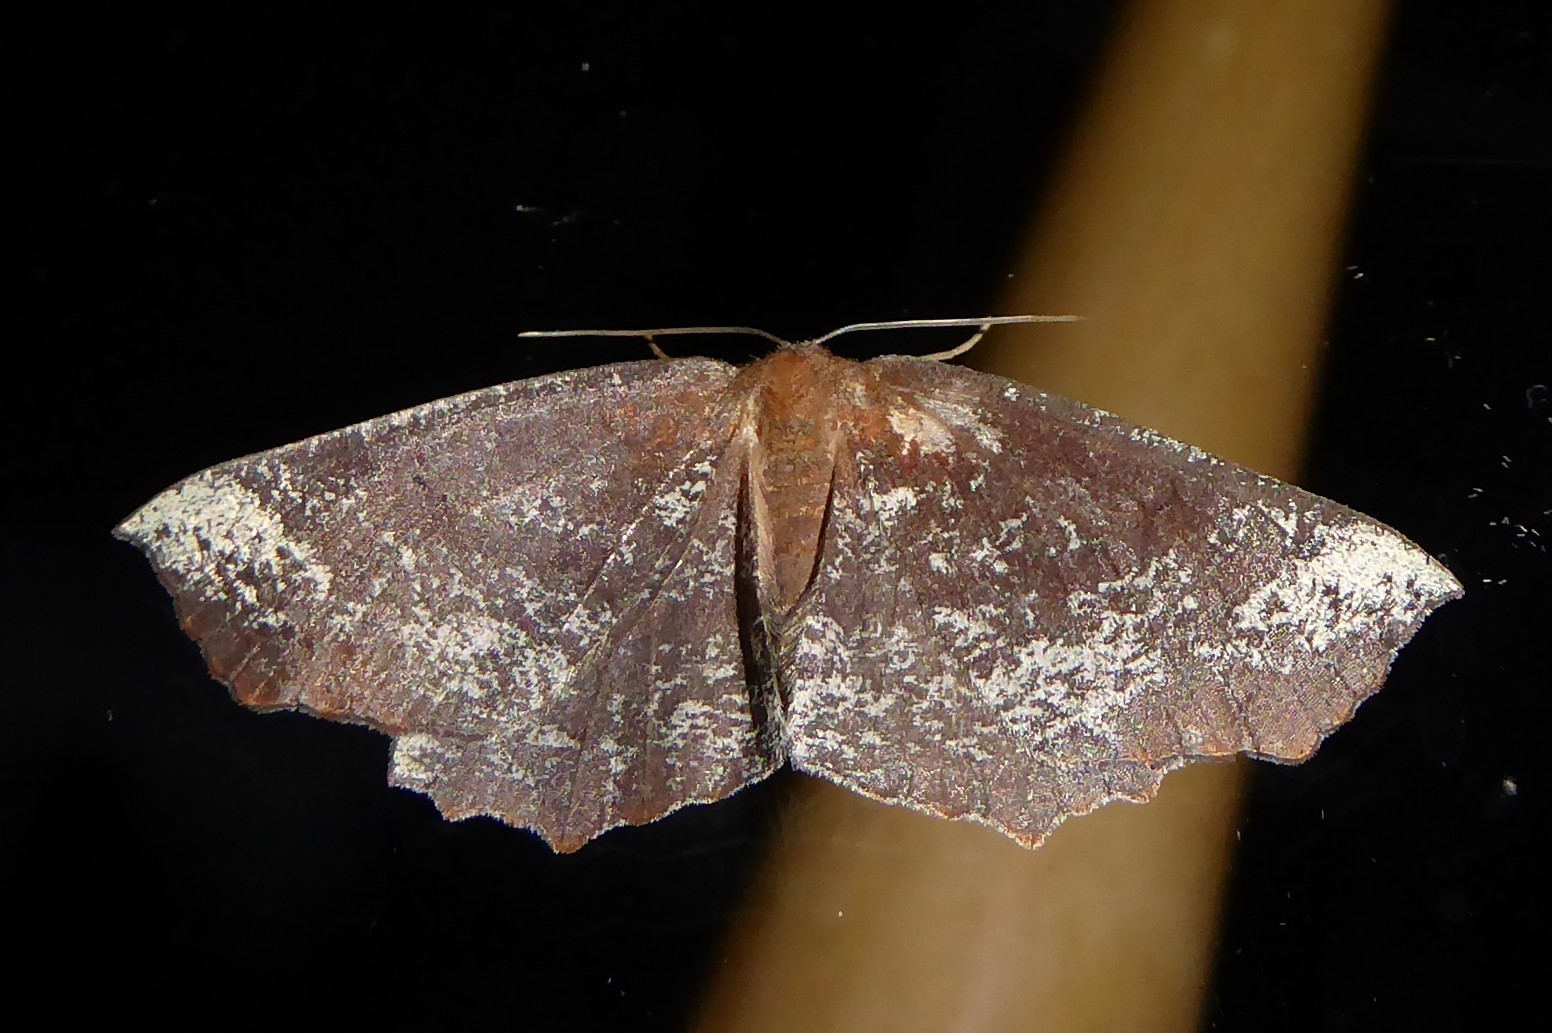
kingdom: Animalia
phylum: Arthropoda
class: Insecta
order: Lepidoptera
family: Geometridae
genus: Xyridacma
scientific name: Xyridacma ustaria
